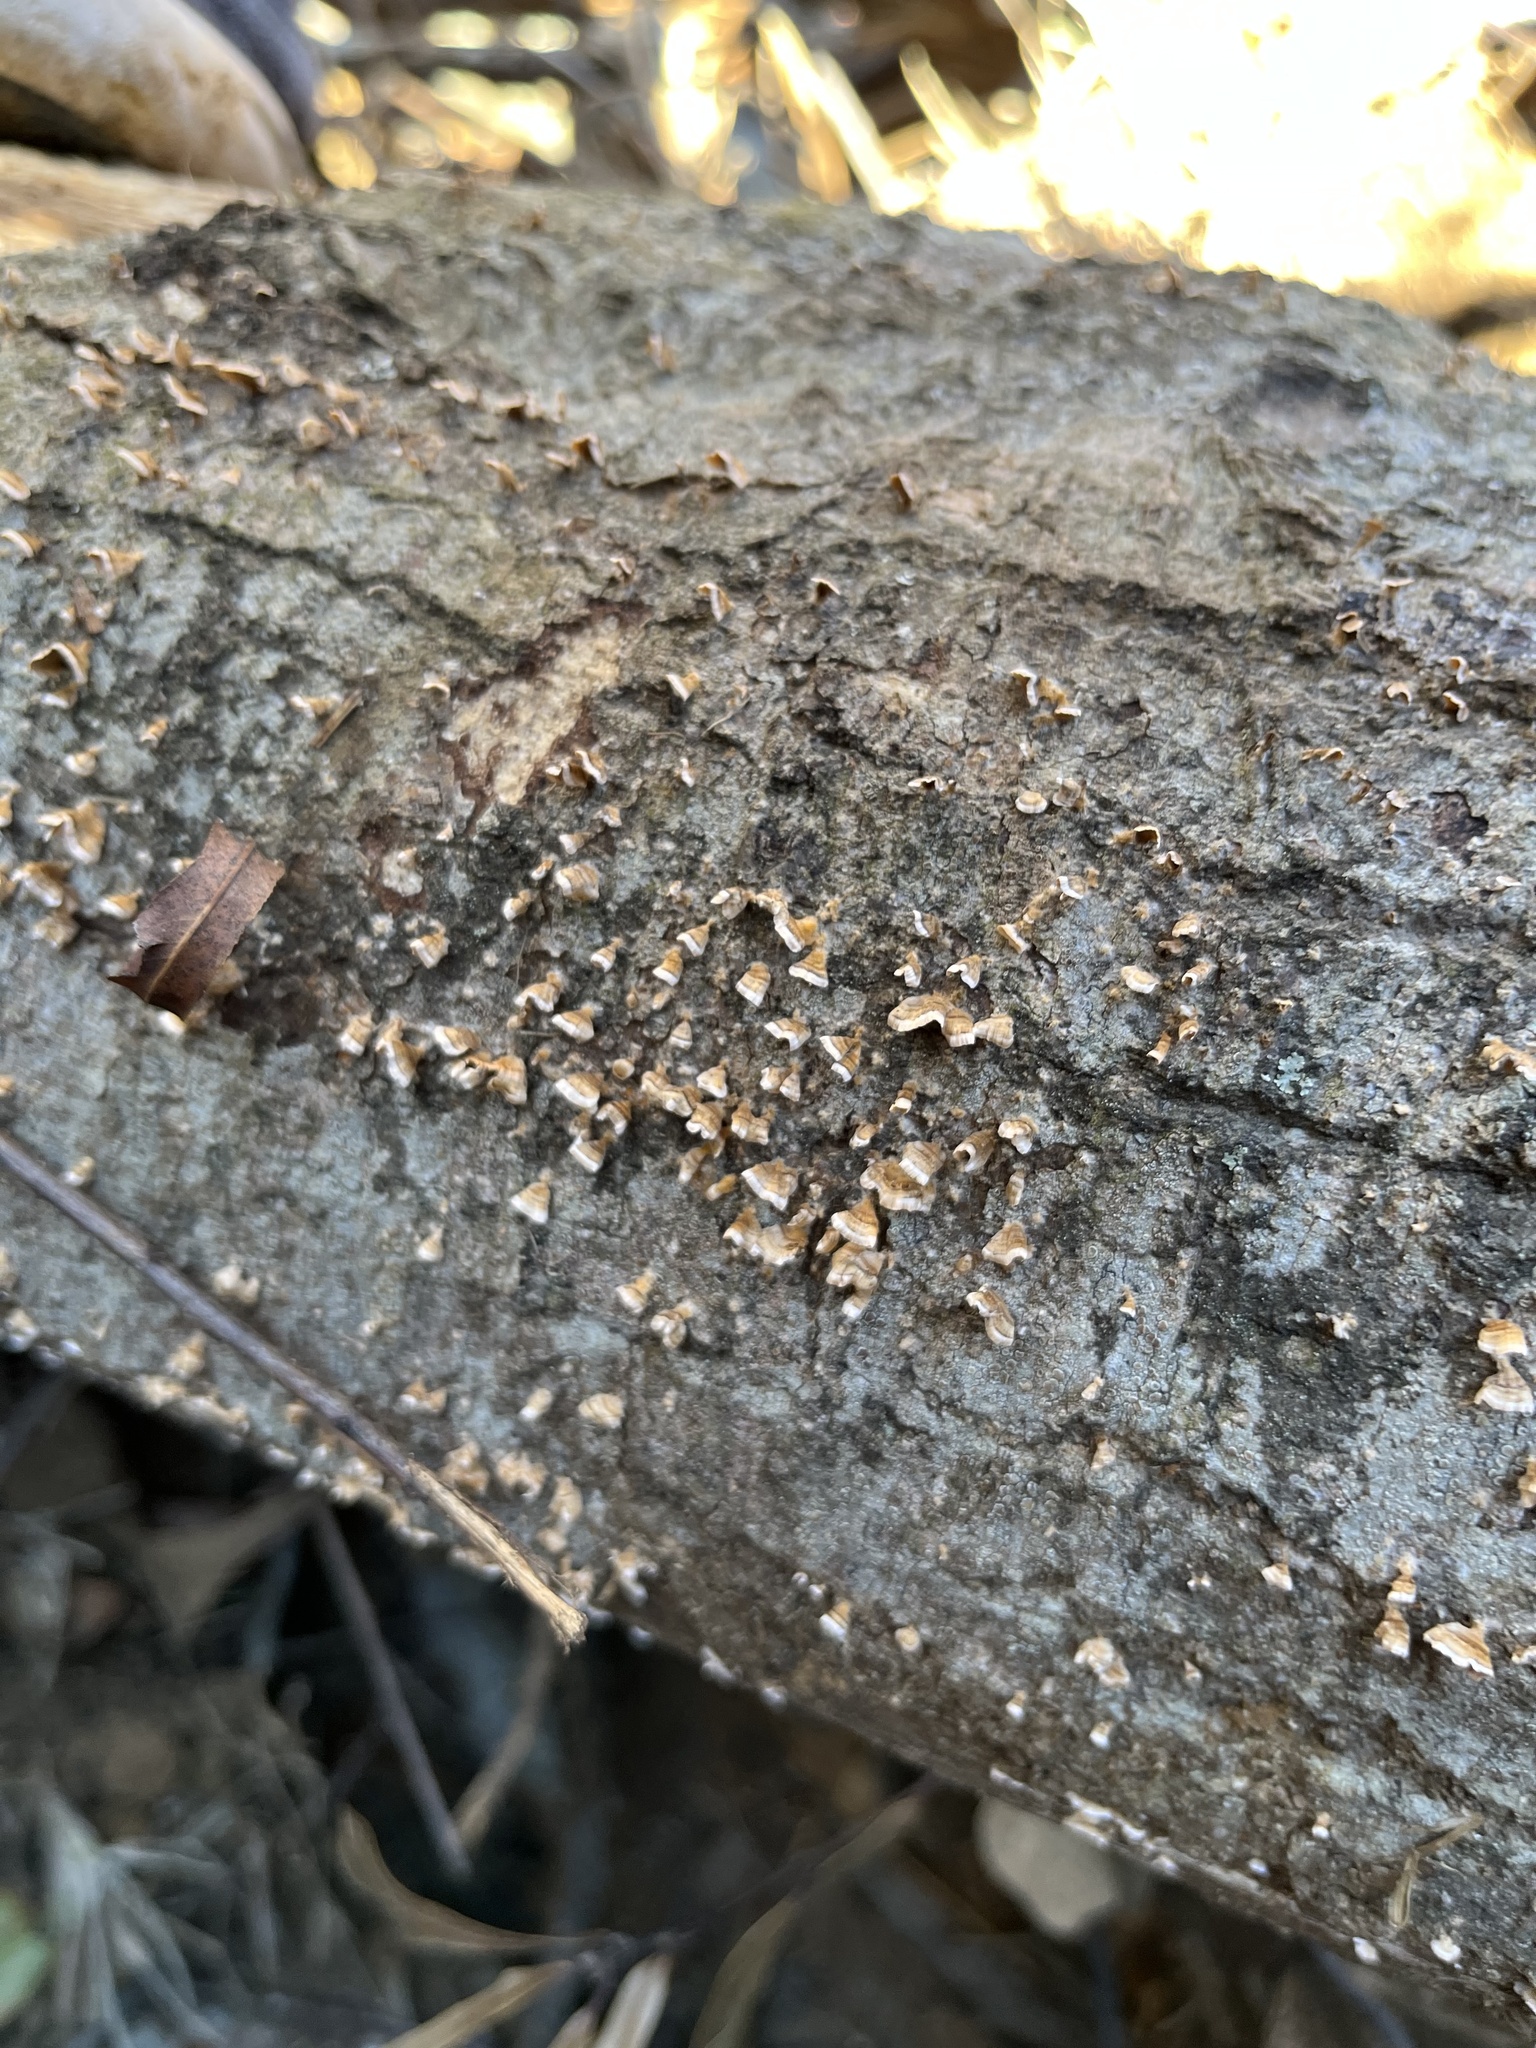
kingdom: Fungi
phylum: Basidiomycota
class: Agaricomycetes
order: Russulales
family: Stereaceae
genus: Stereum
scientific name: Stereum complicatum
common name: Crowded parchment
